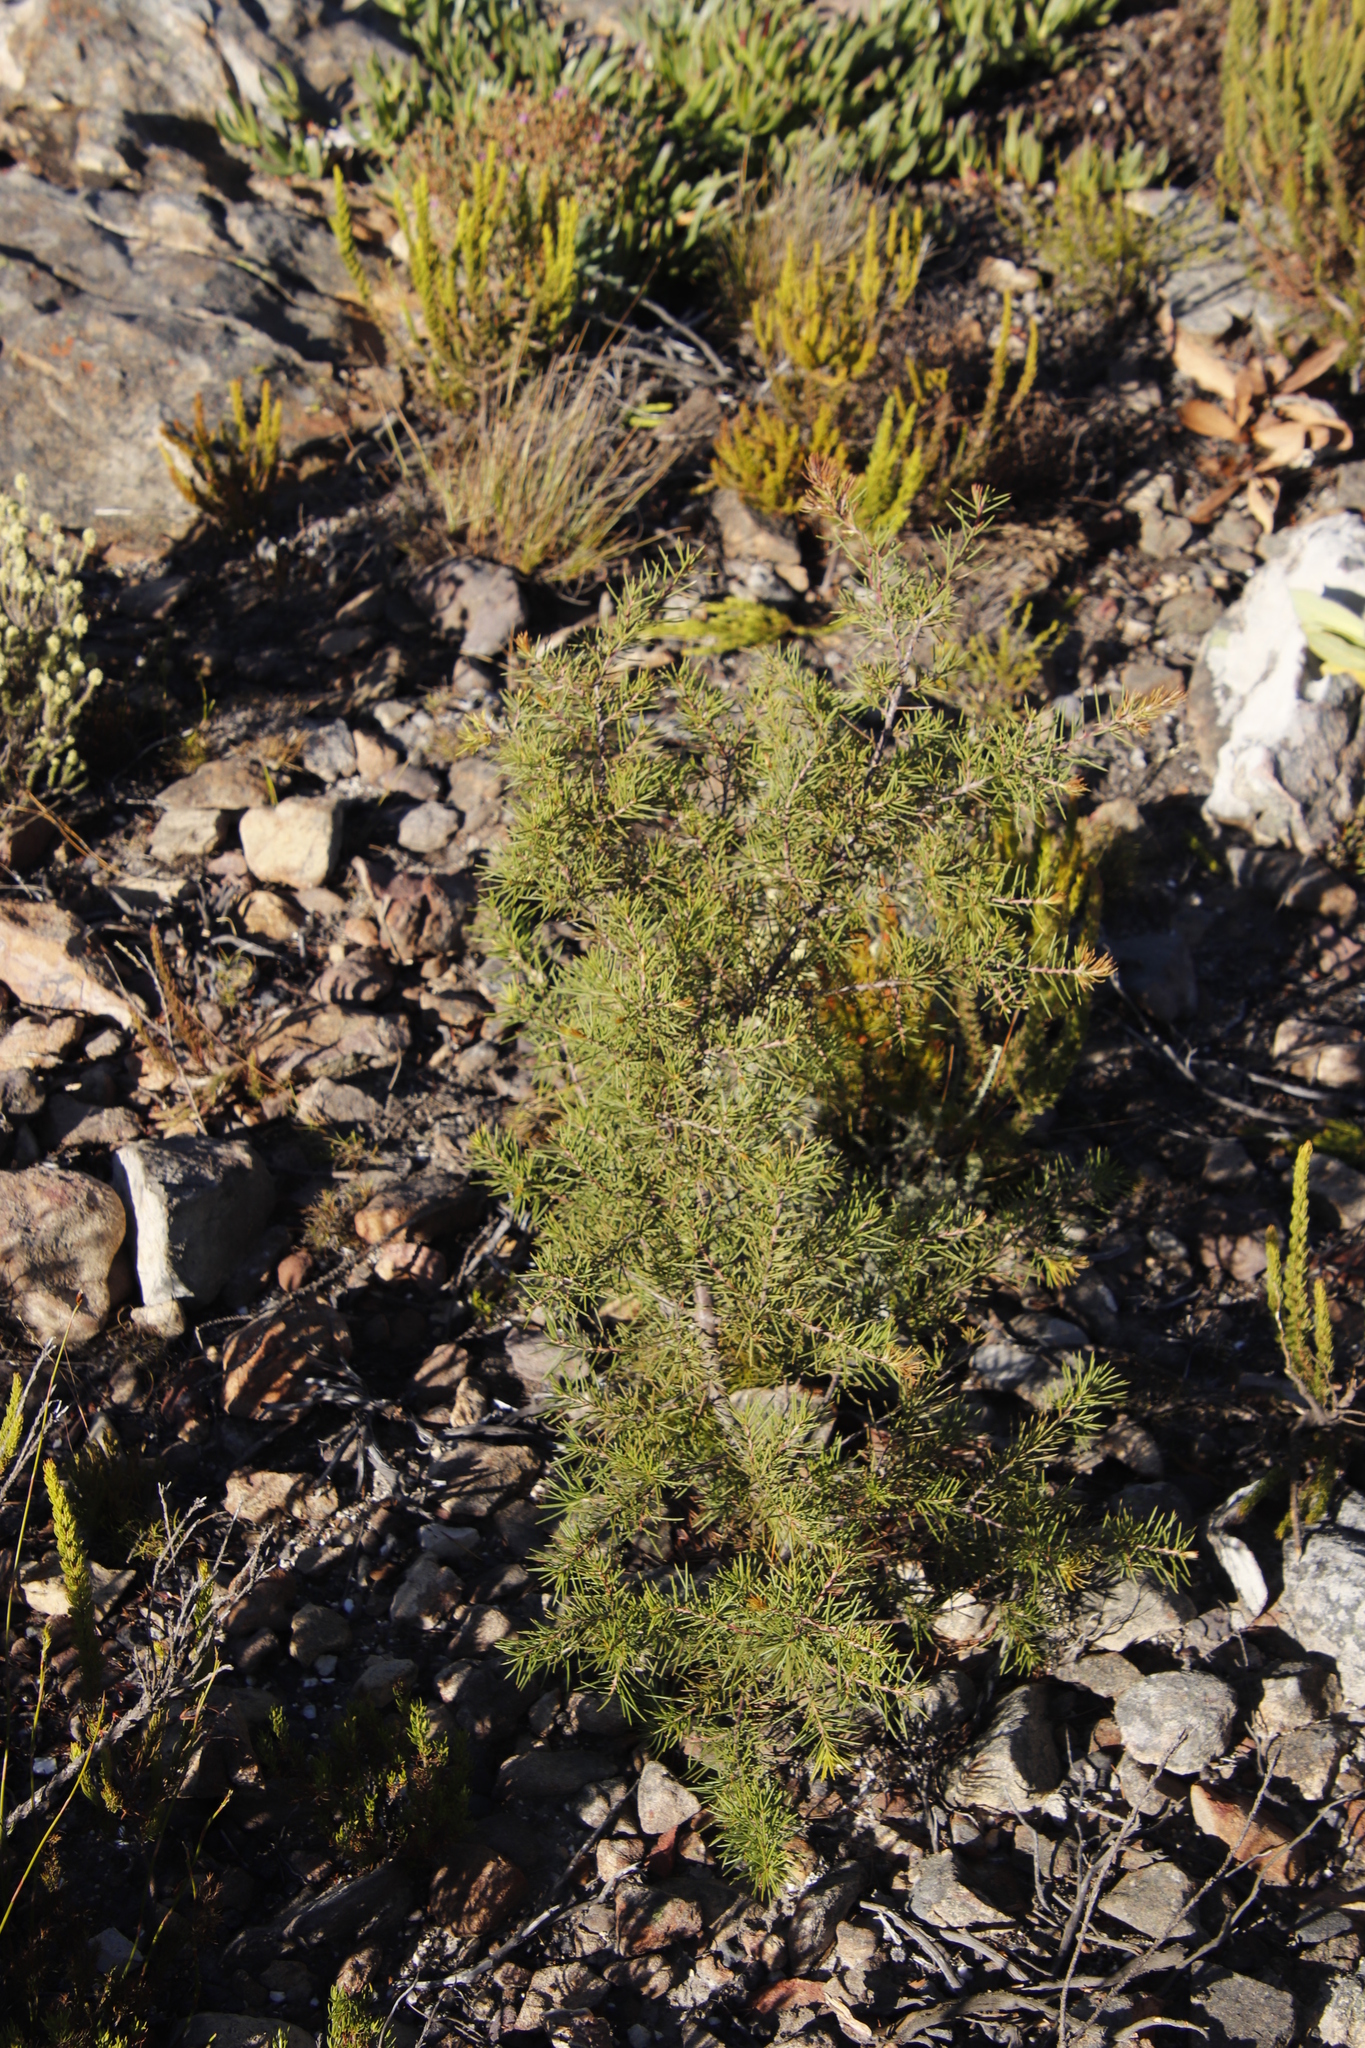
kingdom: Plantae
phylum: Tracheophyta
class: Magnoliopsida
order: Proteales
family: Proteaceae
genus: Hakea
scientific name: Hakea sericea
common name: Needle bush
